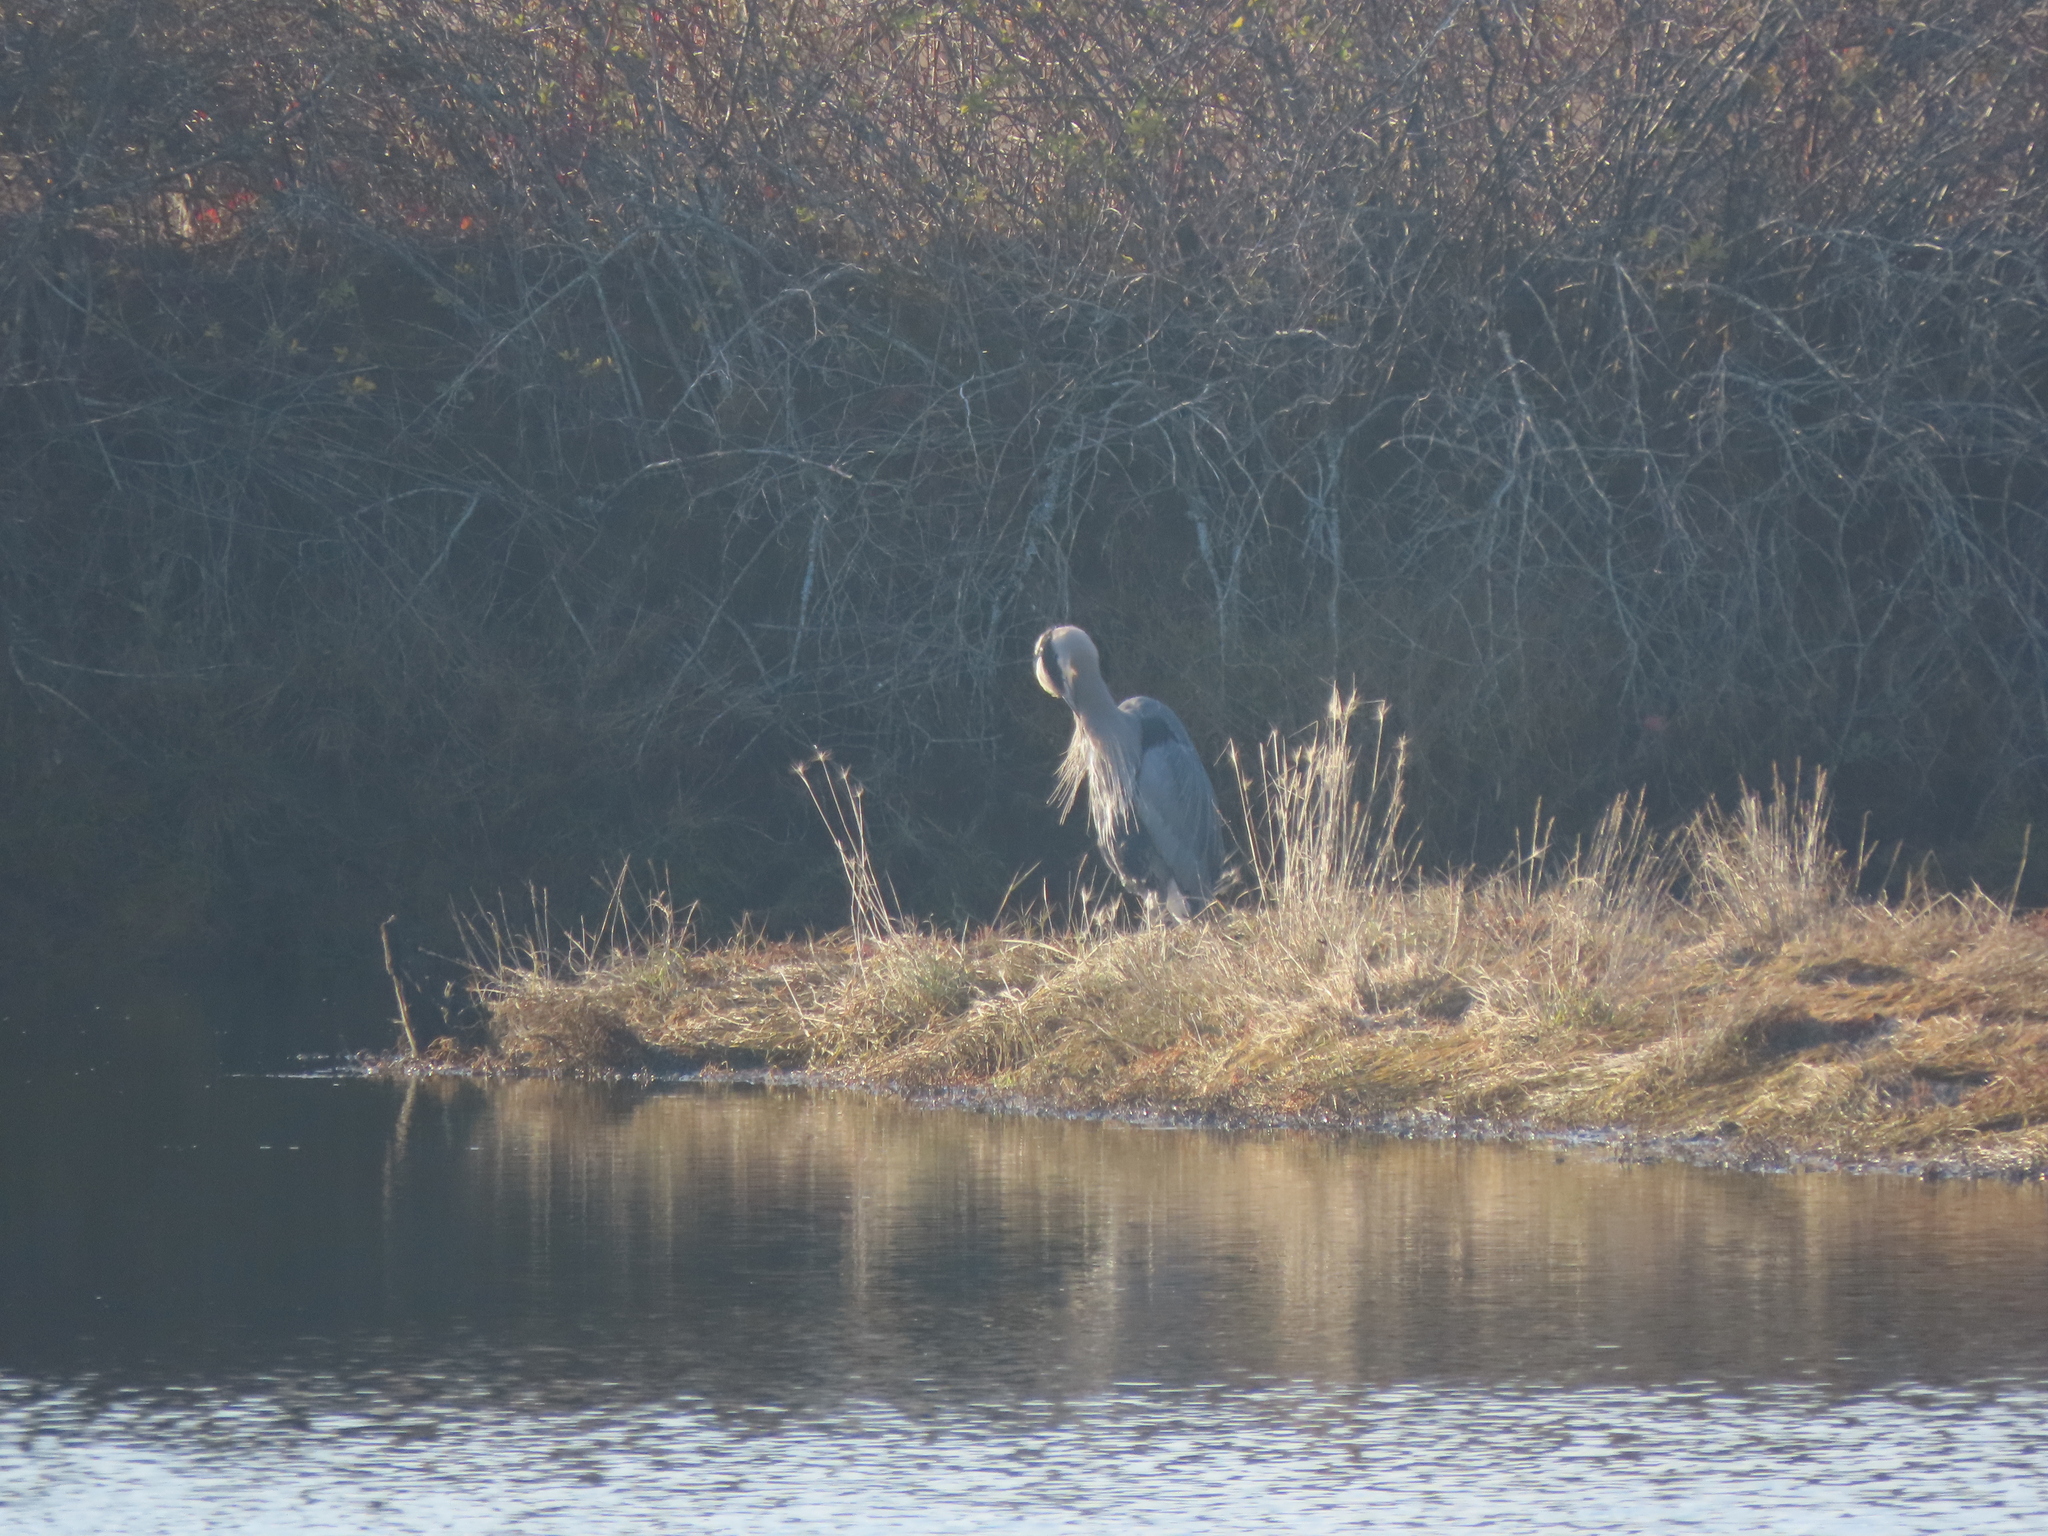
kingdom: Animalia
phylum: Chordata
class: Aves
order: Pelecaniformes
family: Ardeidae
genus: Ardea
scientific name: Ardea herodias
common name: Great blue heron
